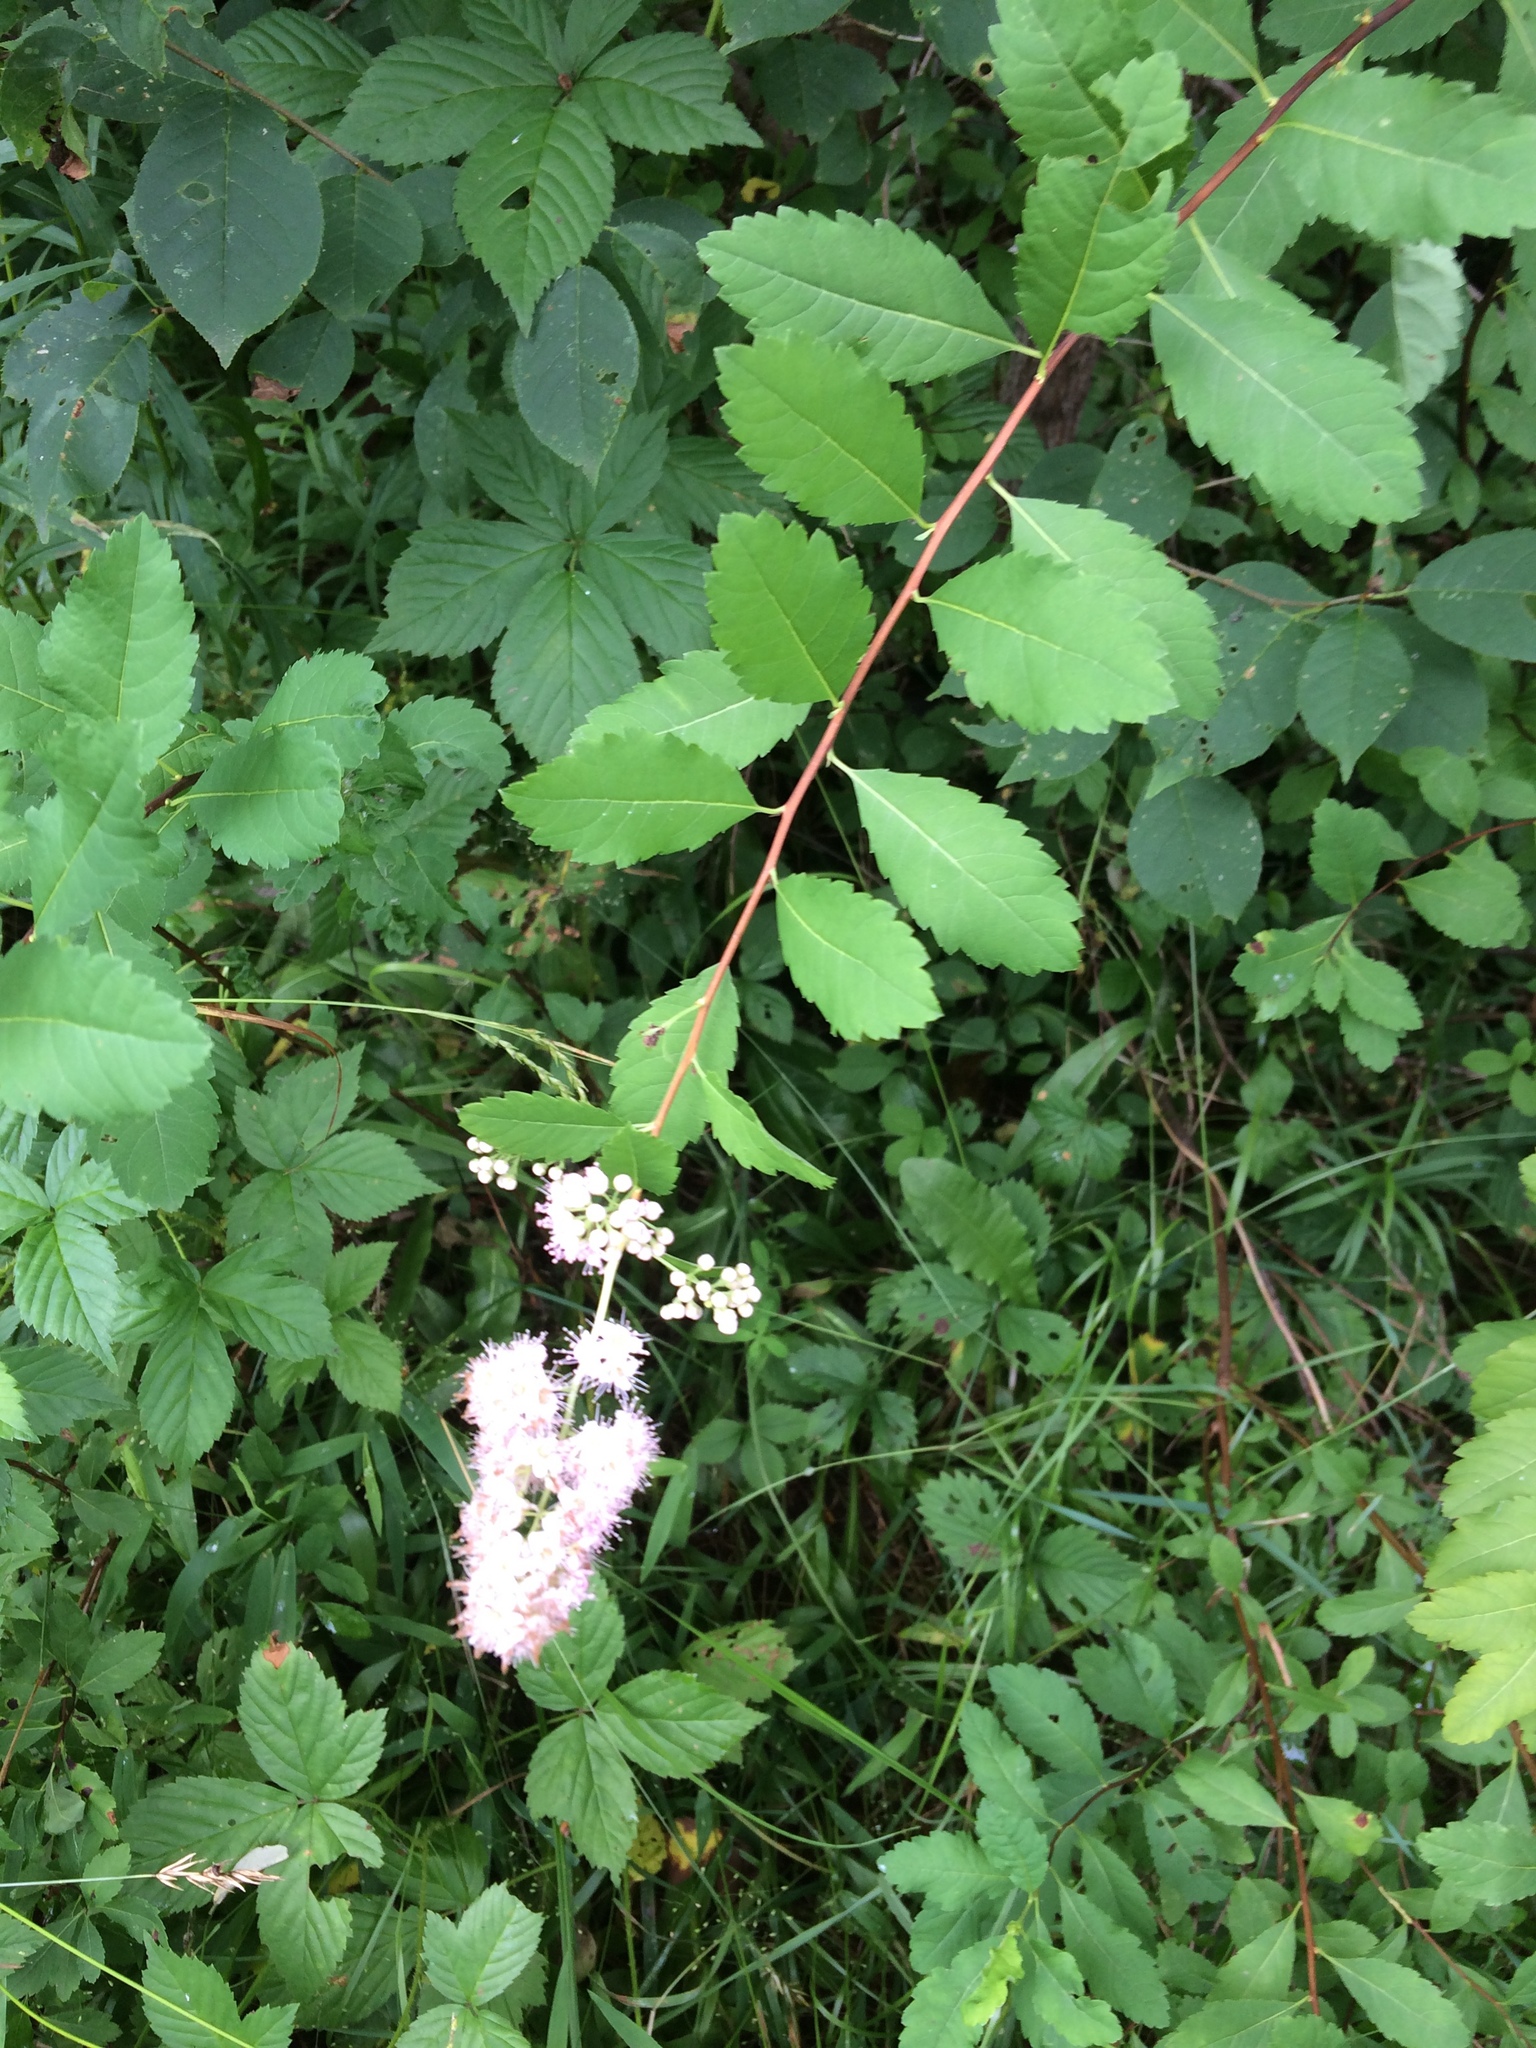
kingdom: Plantae
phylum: Tracheophyta
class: Magnoliopsida
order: Rosales
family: Rosaceae
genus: Spiraea
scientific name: Spiraea alba
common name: Pale bridewort
